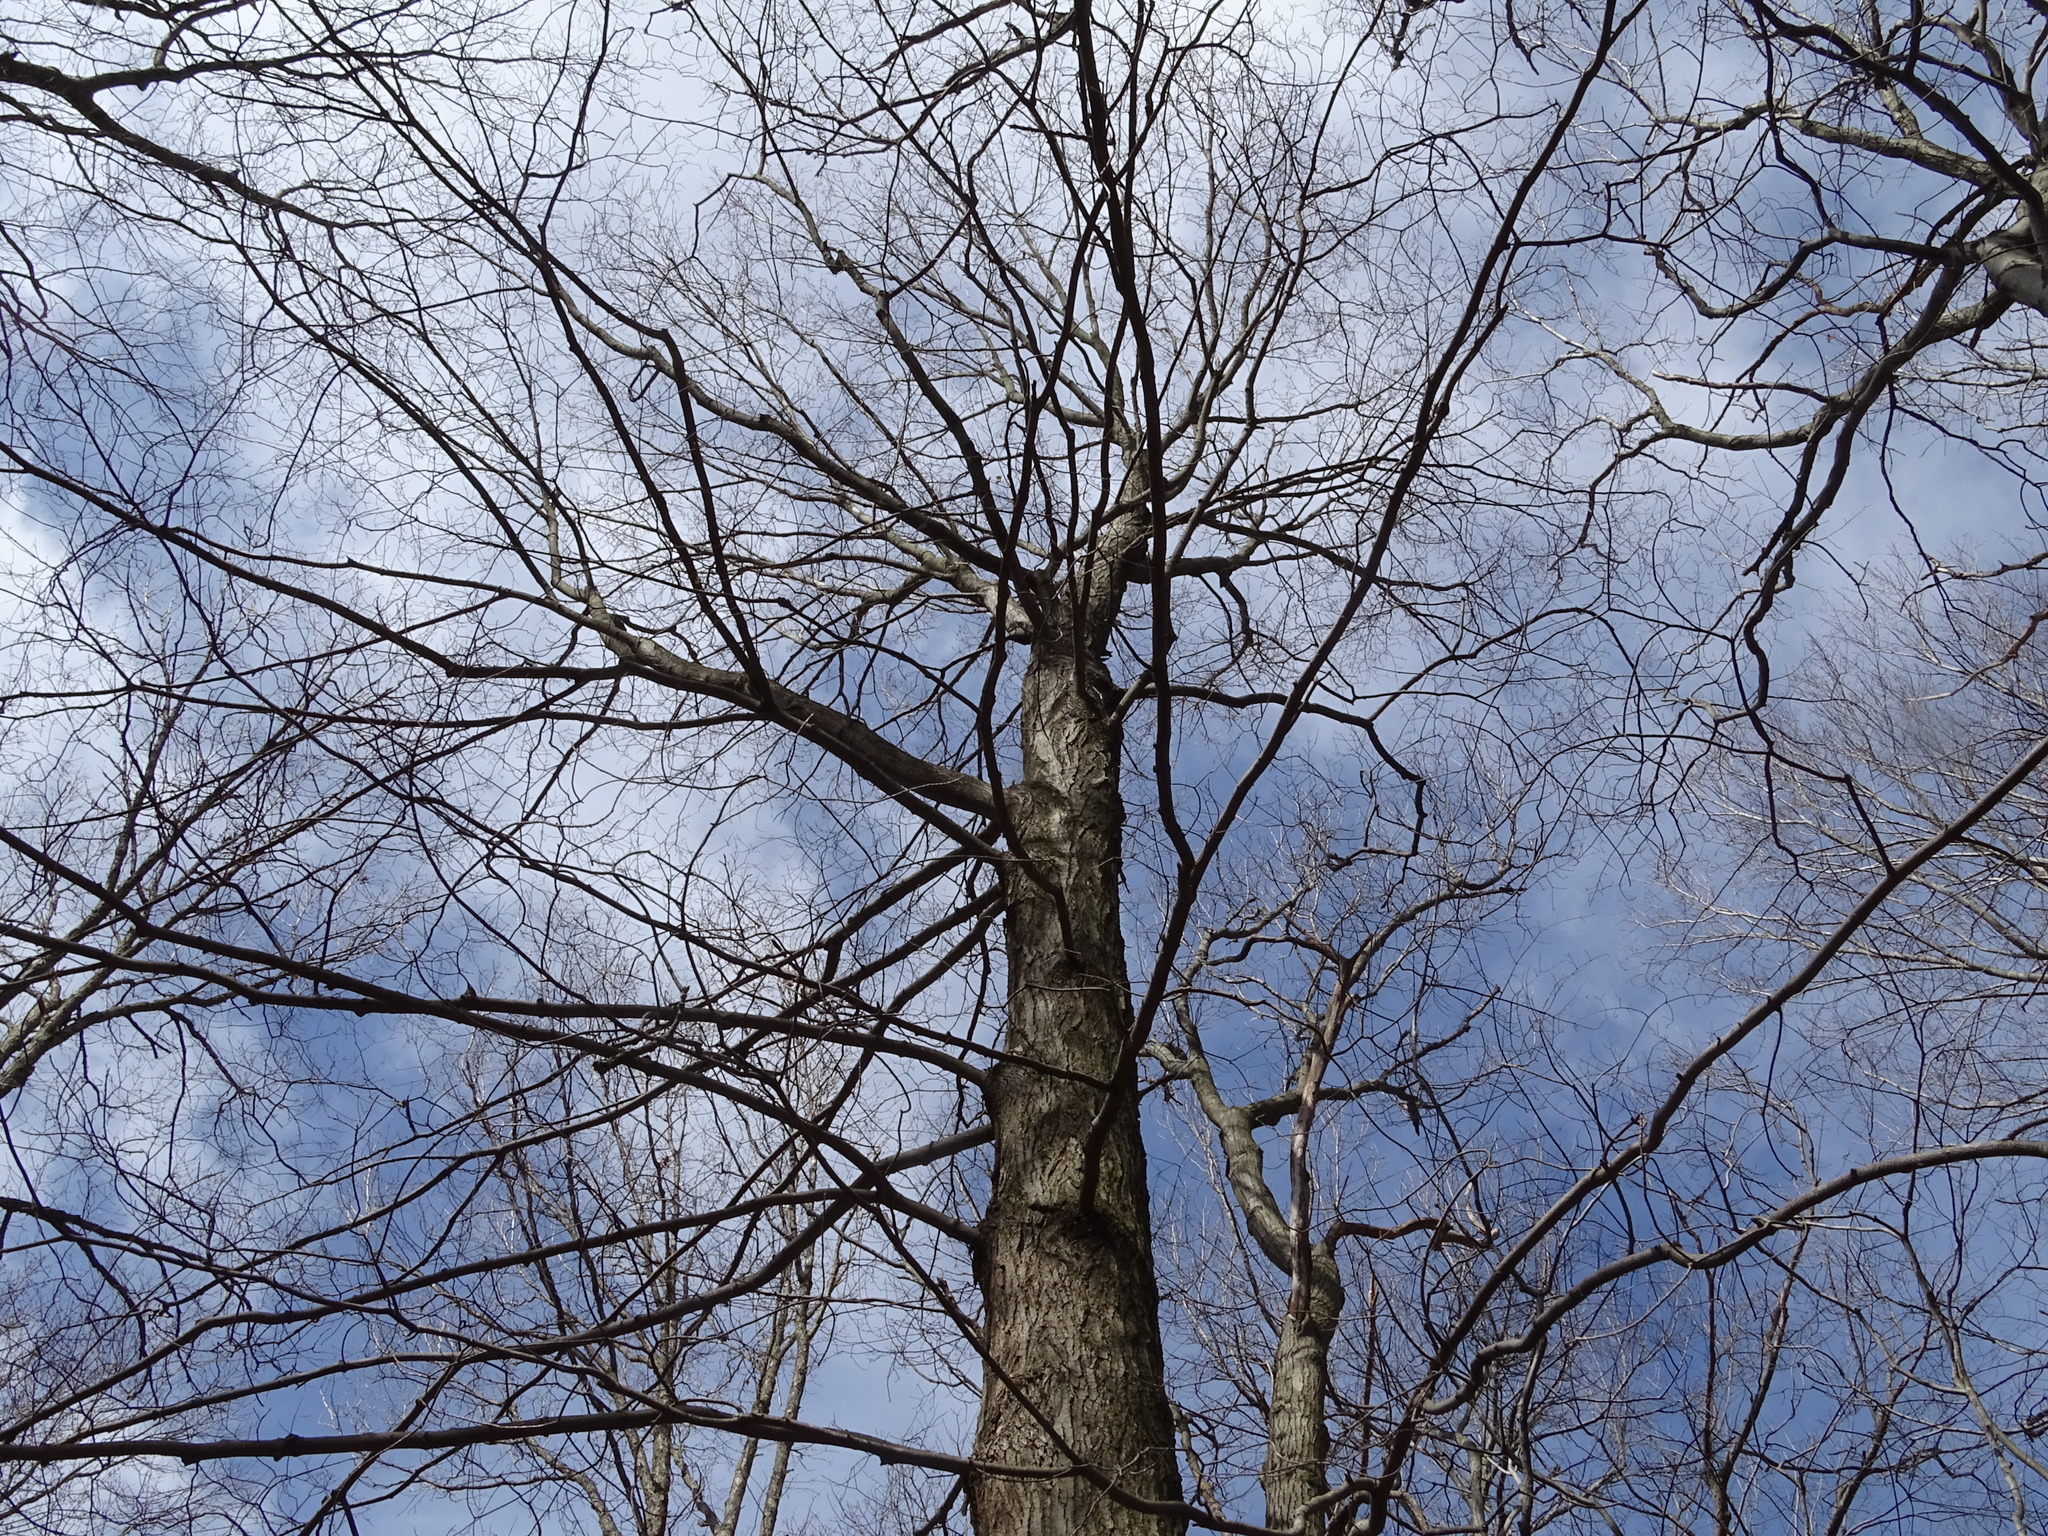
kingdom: Plantae
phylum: Tracheophyta
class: Magnoliopsida
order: Sapindales
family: Sapindaceae
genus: Acer
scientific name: Acer saccharum
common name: Sugar maple
